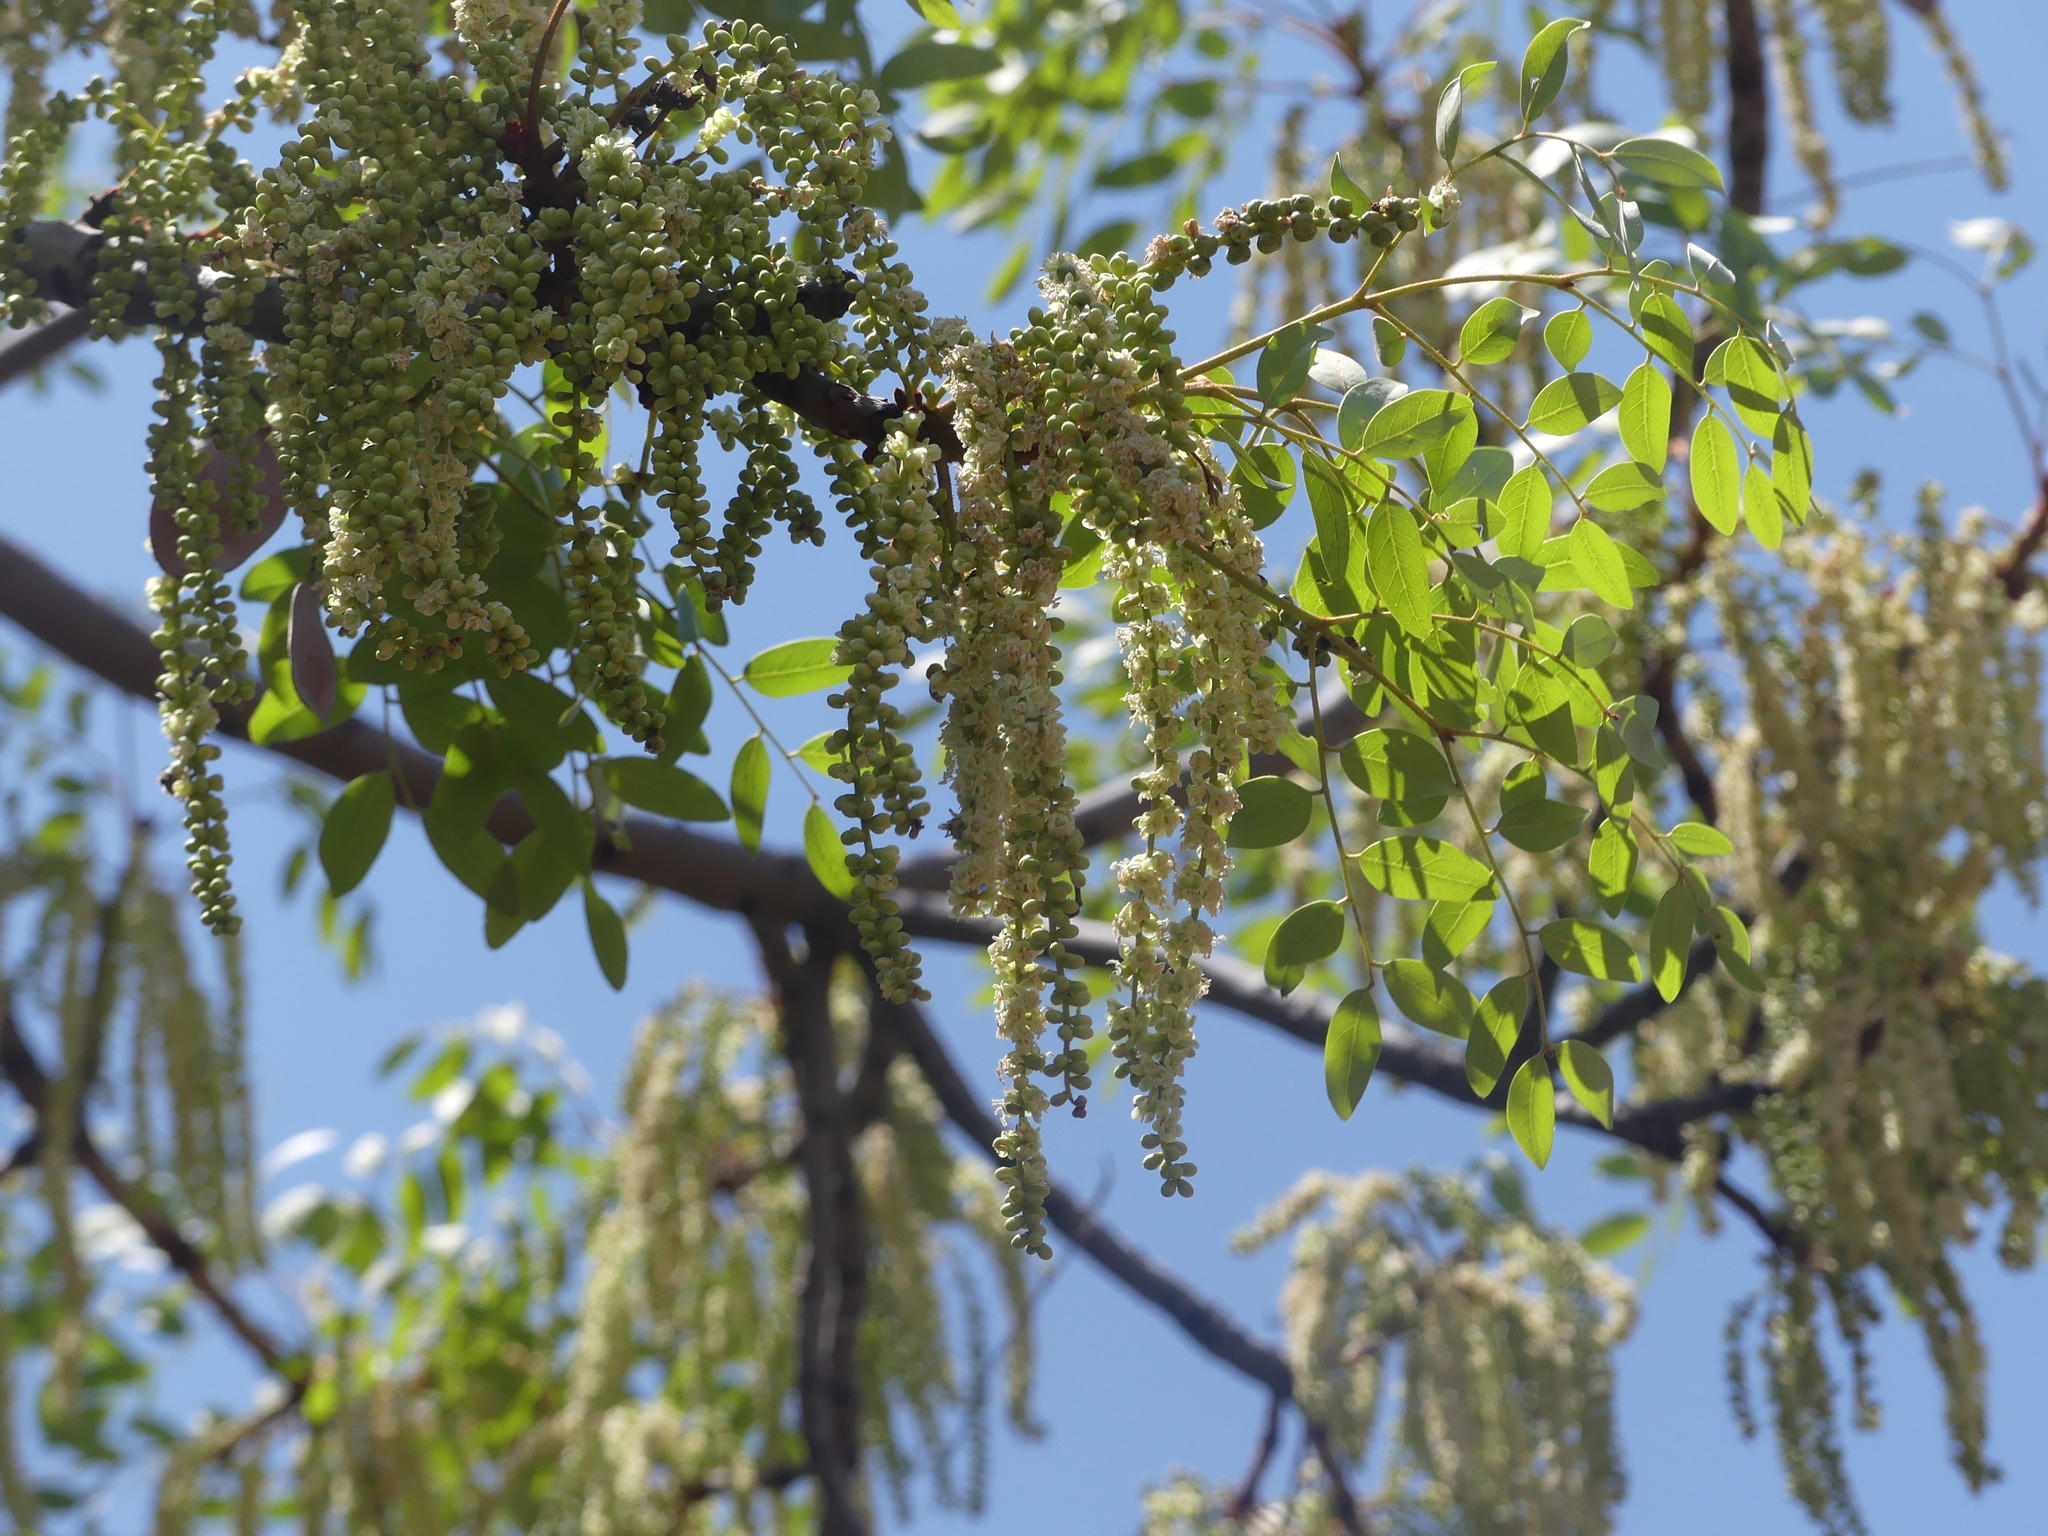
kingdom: Plantae
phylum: Tracheophyta
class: Magnoliopsida
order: Fabales
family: Fabaceae
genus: Burkea
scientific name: Burkea africana
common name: Mkalati tree
